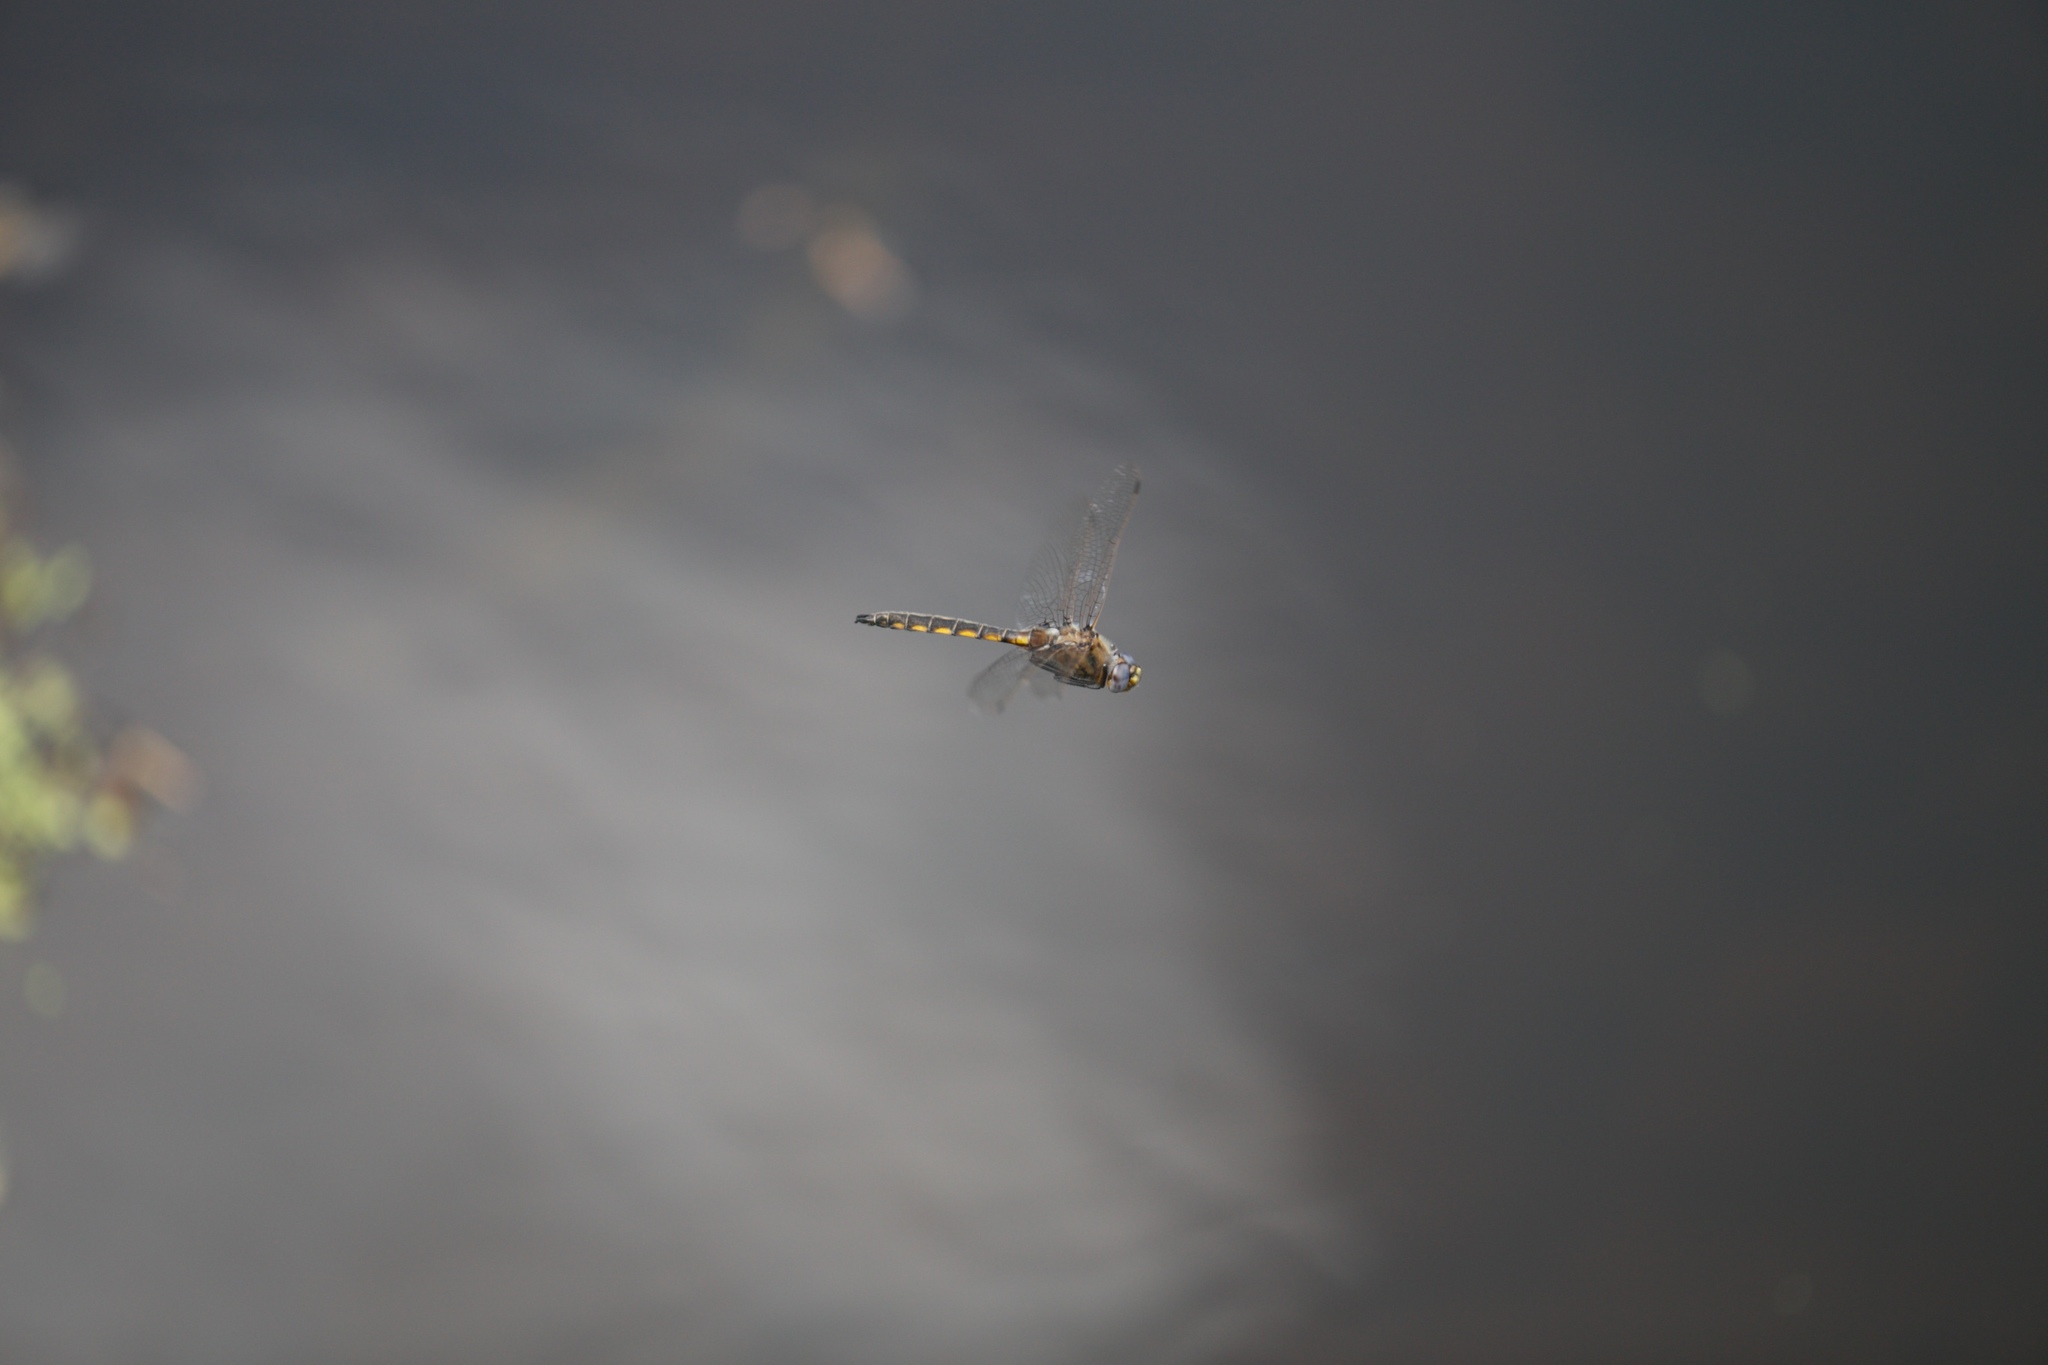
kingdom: Animalia
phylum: Arthropoda
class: Insecta
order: Odonata
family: Corduliidae
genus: Epitheca
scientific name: Epitheca canis
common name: Beaverpond baskettail
